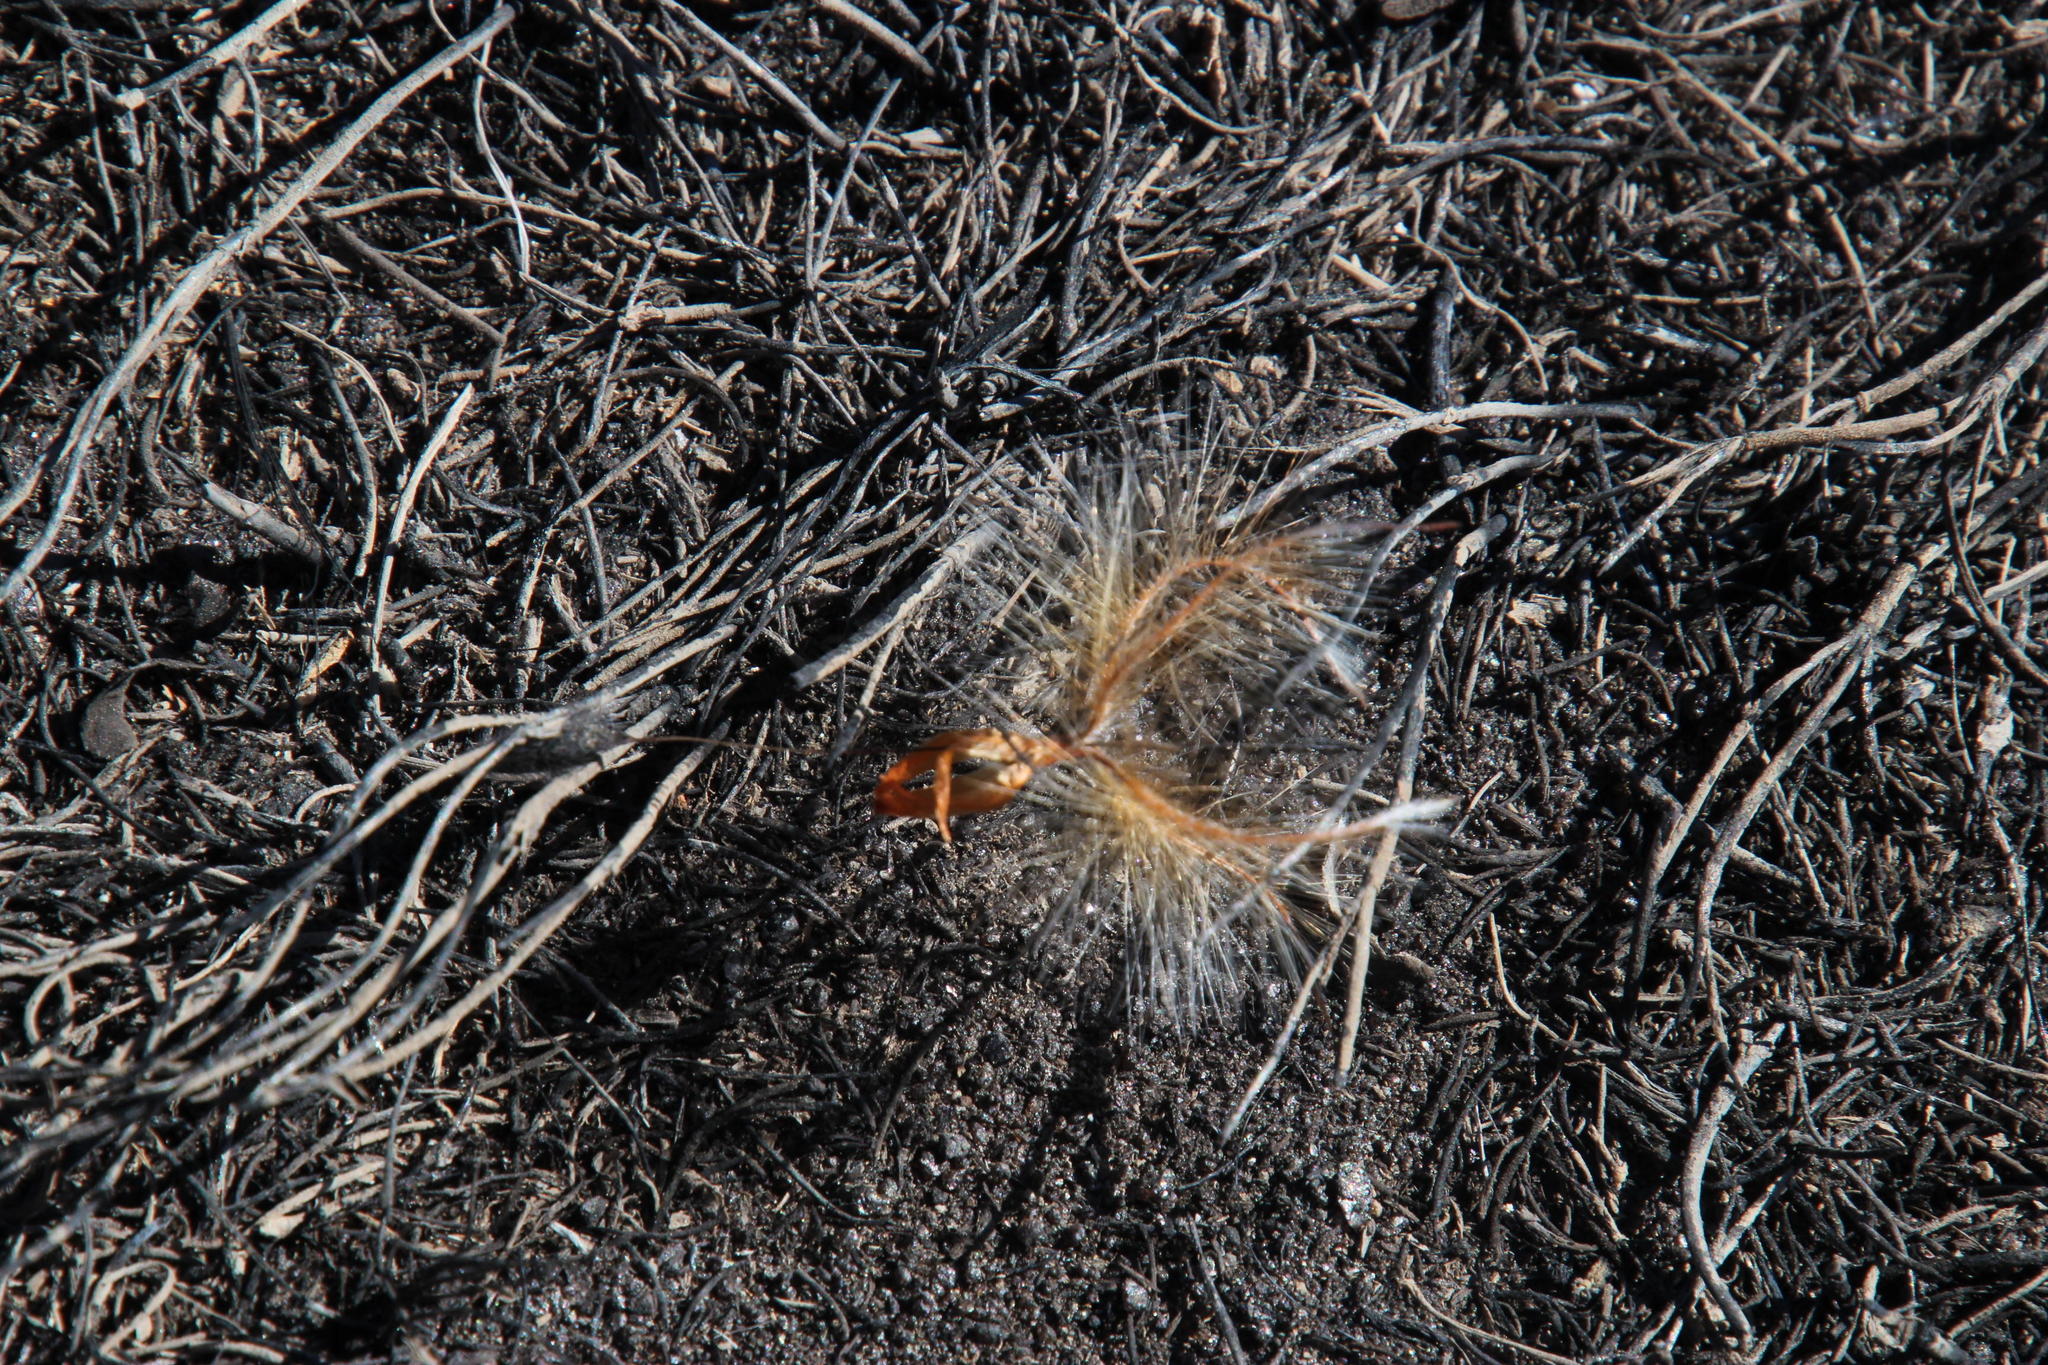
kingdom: Plantae
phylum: Tracheophyta
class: Magnoliopsida
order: Proteales
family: Proteaceae
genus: Leucadendron
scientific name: Leucadendron rubrum
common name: Spinning top
